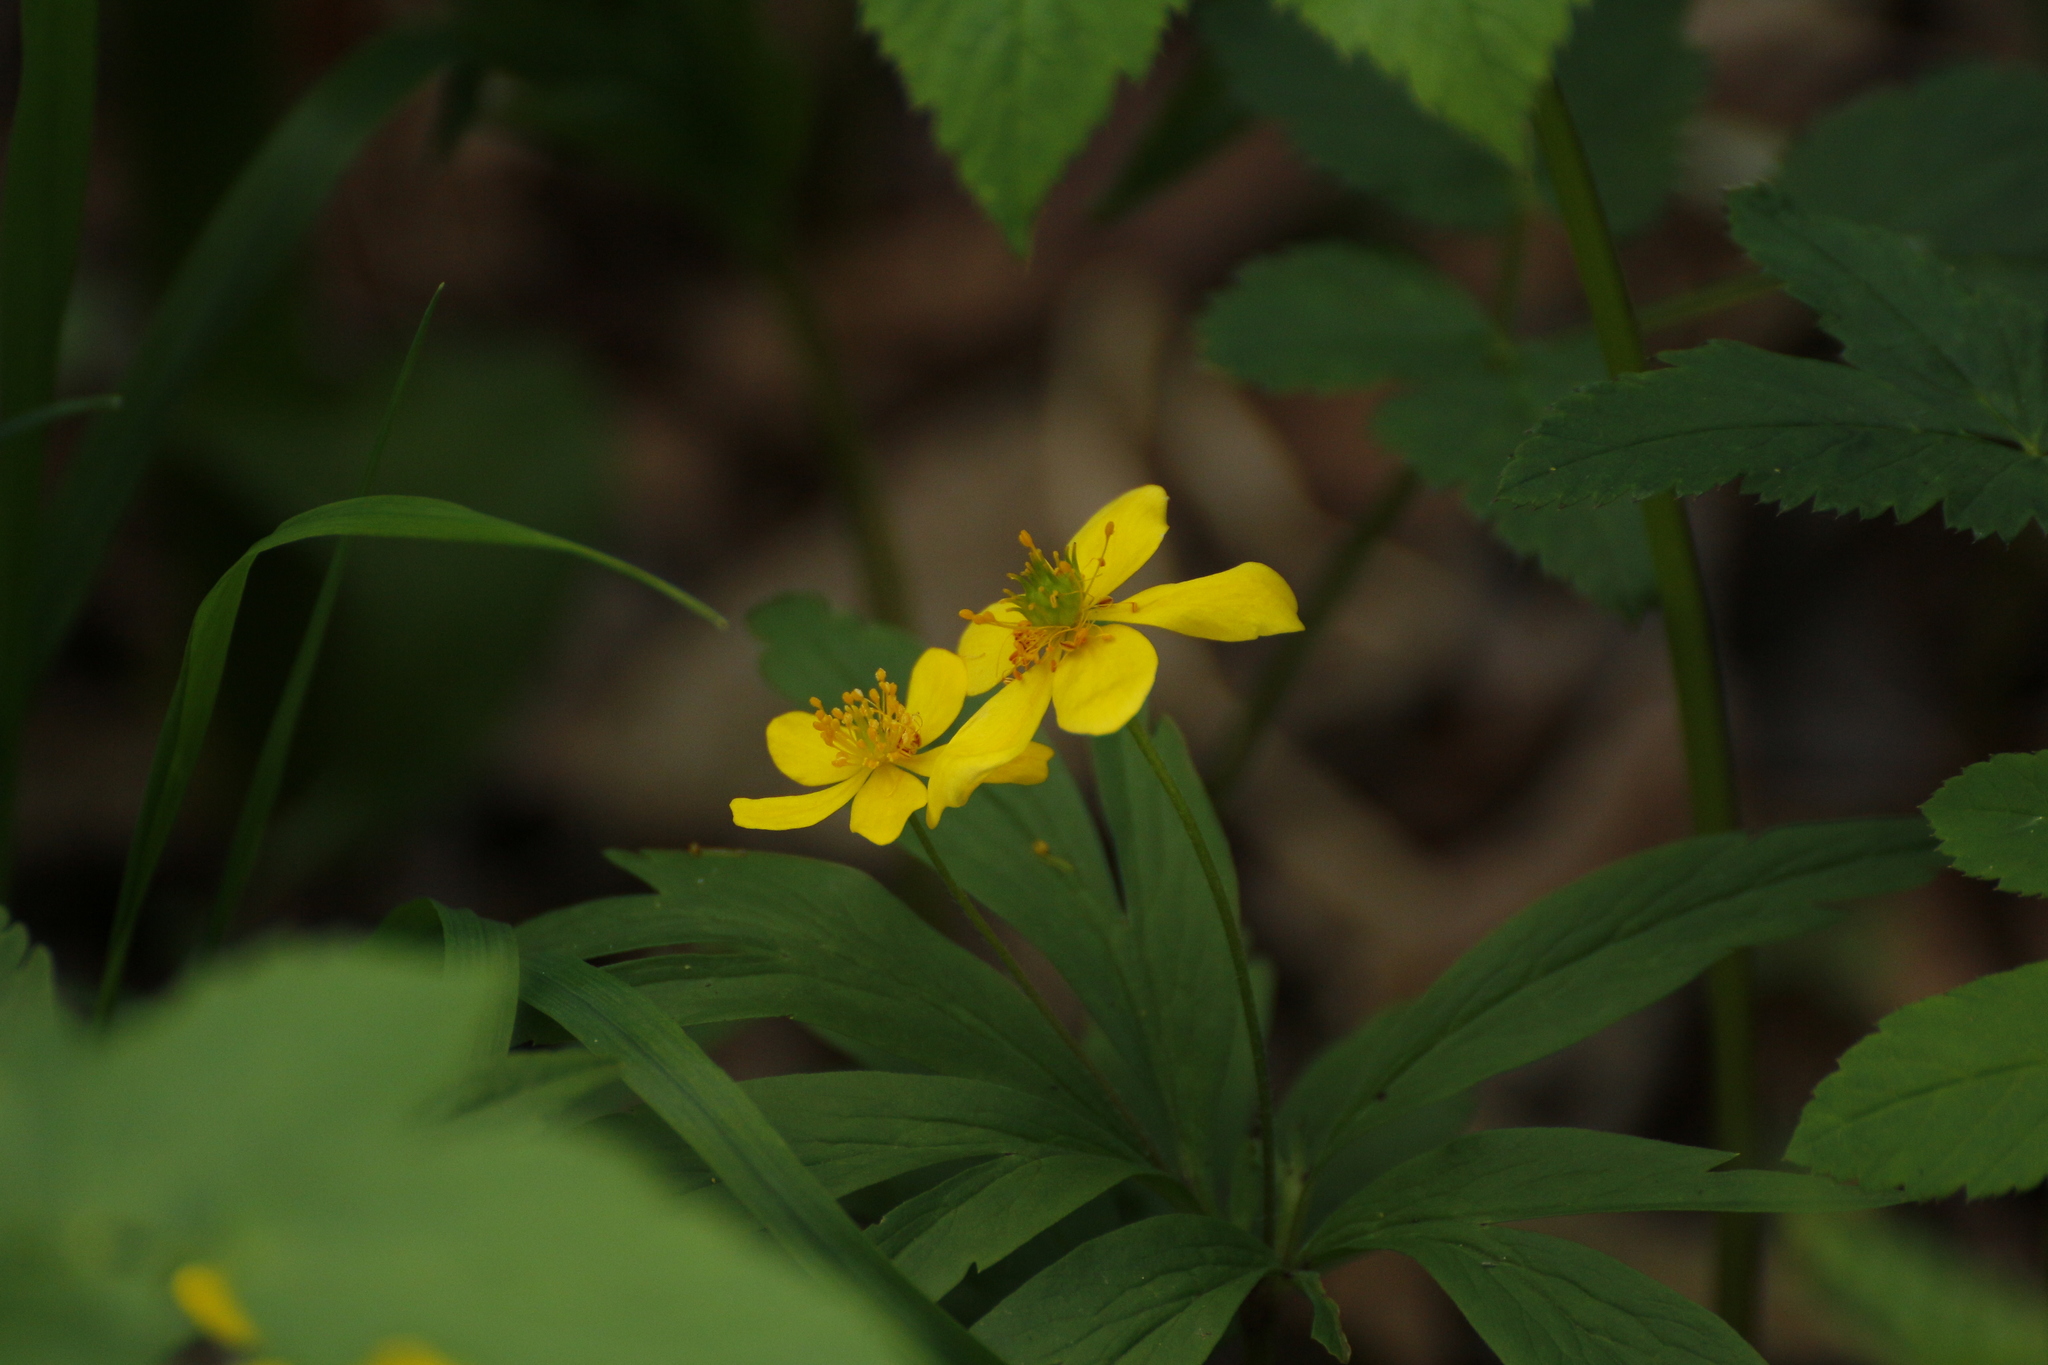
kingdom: Plantae
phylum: Tracheophyta
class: Magnoliopsida
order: Ranunculales
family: Ranunculaceae
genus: Anemone
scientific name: Anemone ranunculoides
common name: Yellow anemone
